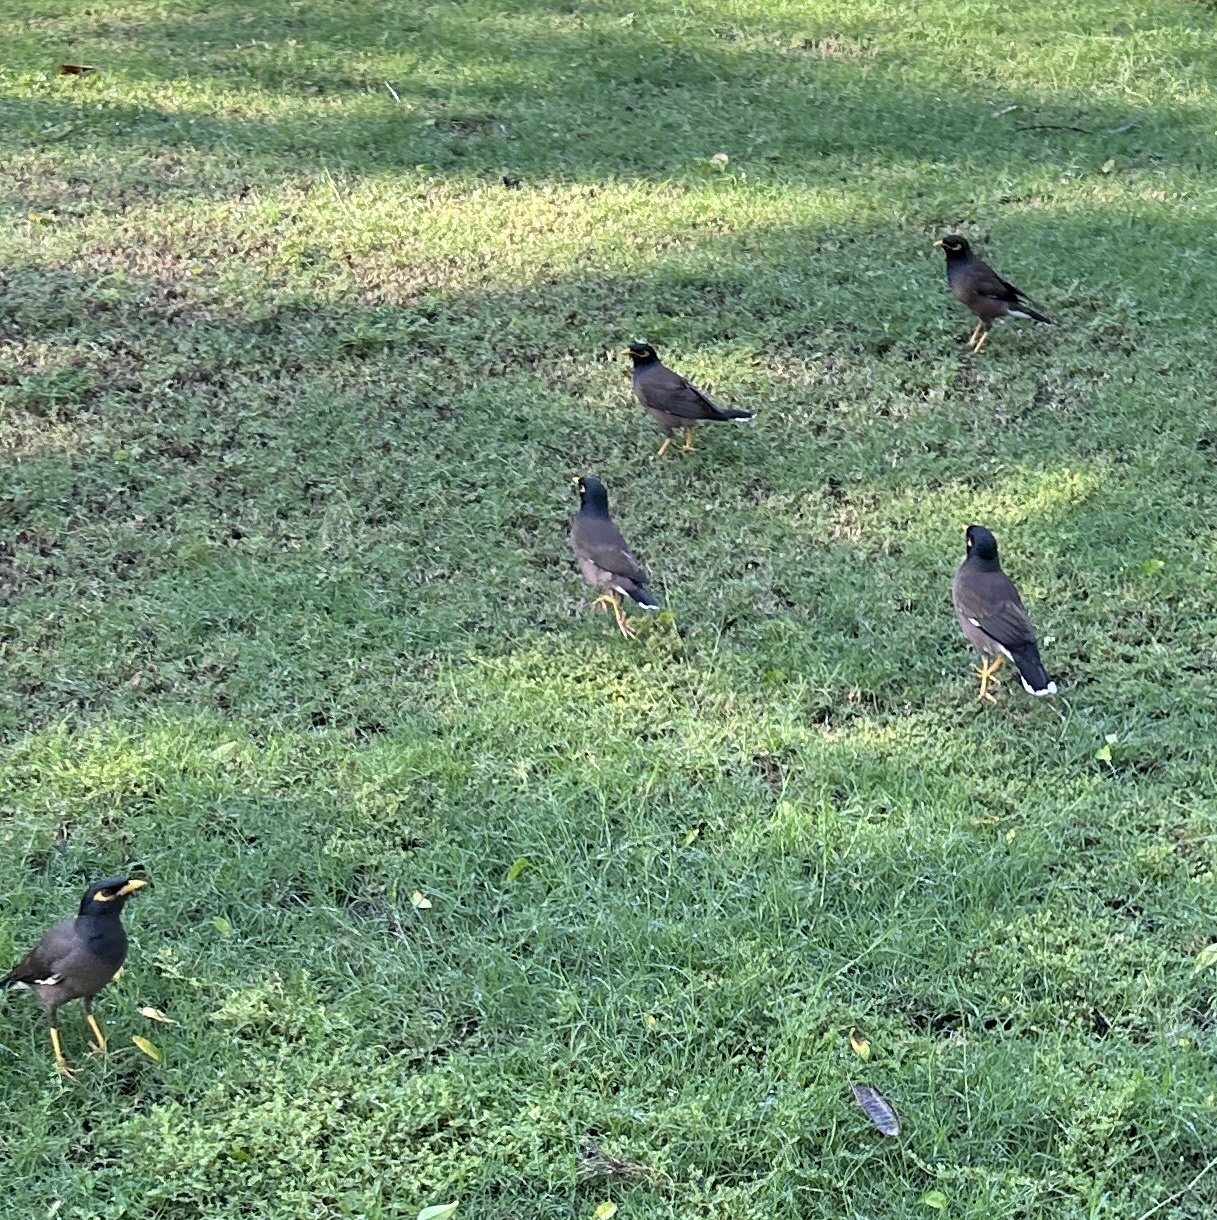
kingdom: Animalia
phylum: Chordata
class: Aves
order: Passeriformes
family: Sturnidae
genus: Acridotheres
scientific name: Acridotheres tristis
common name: Common myna
